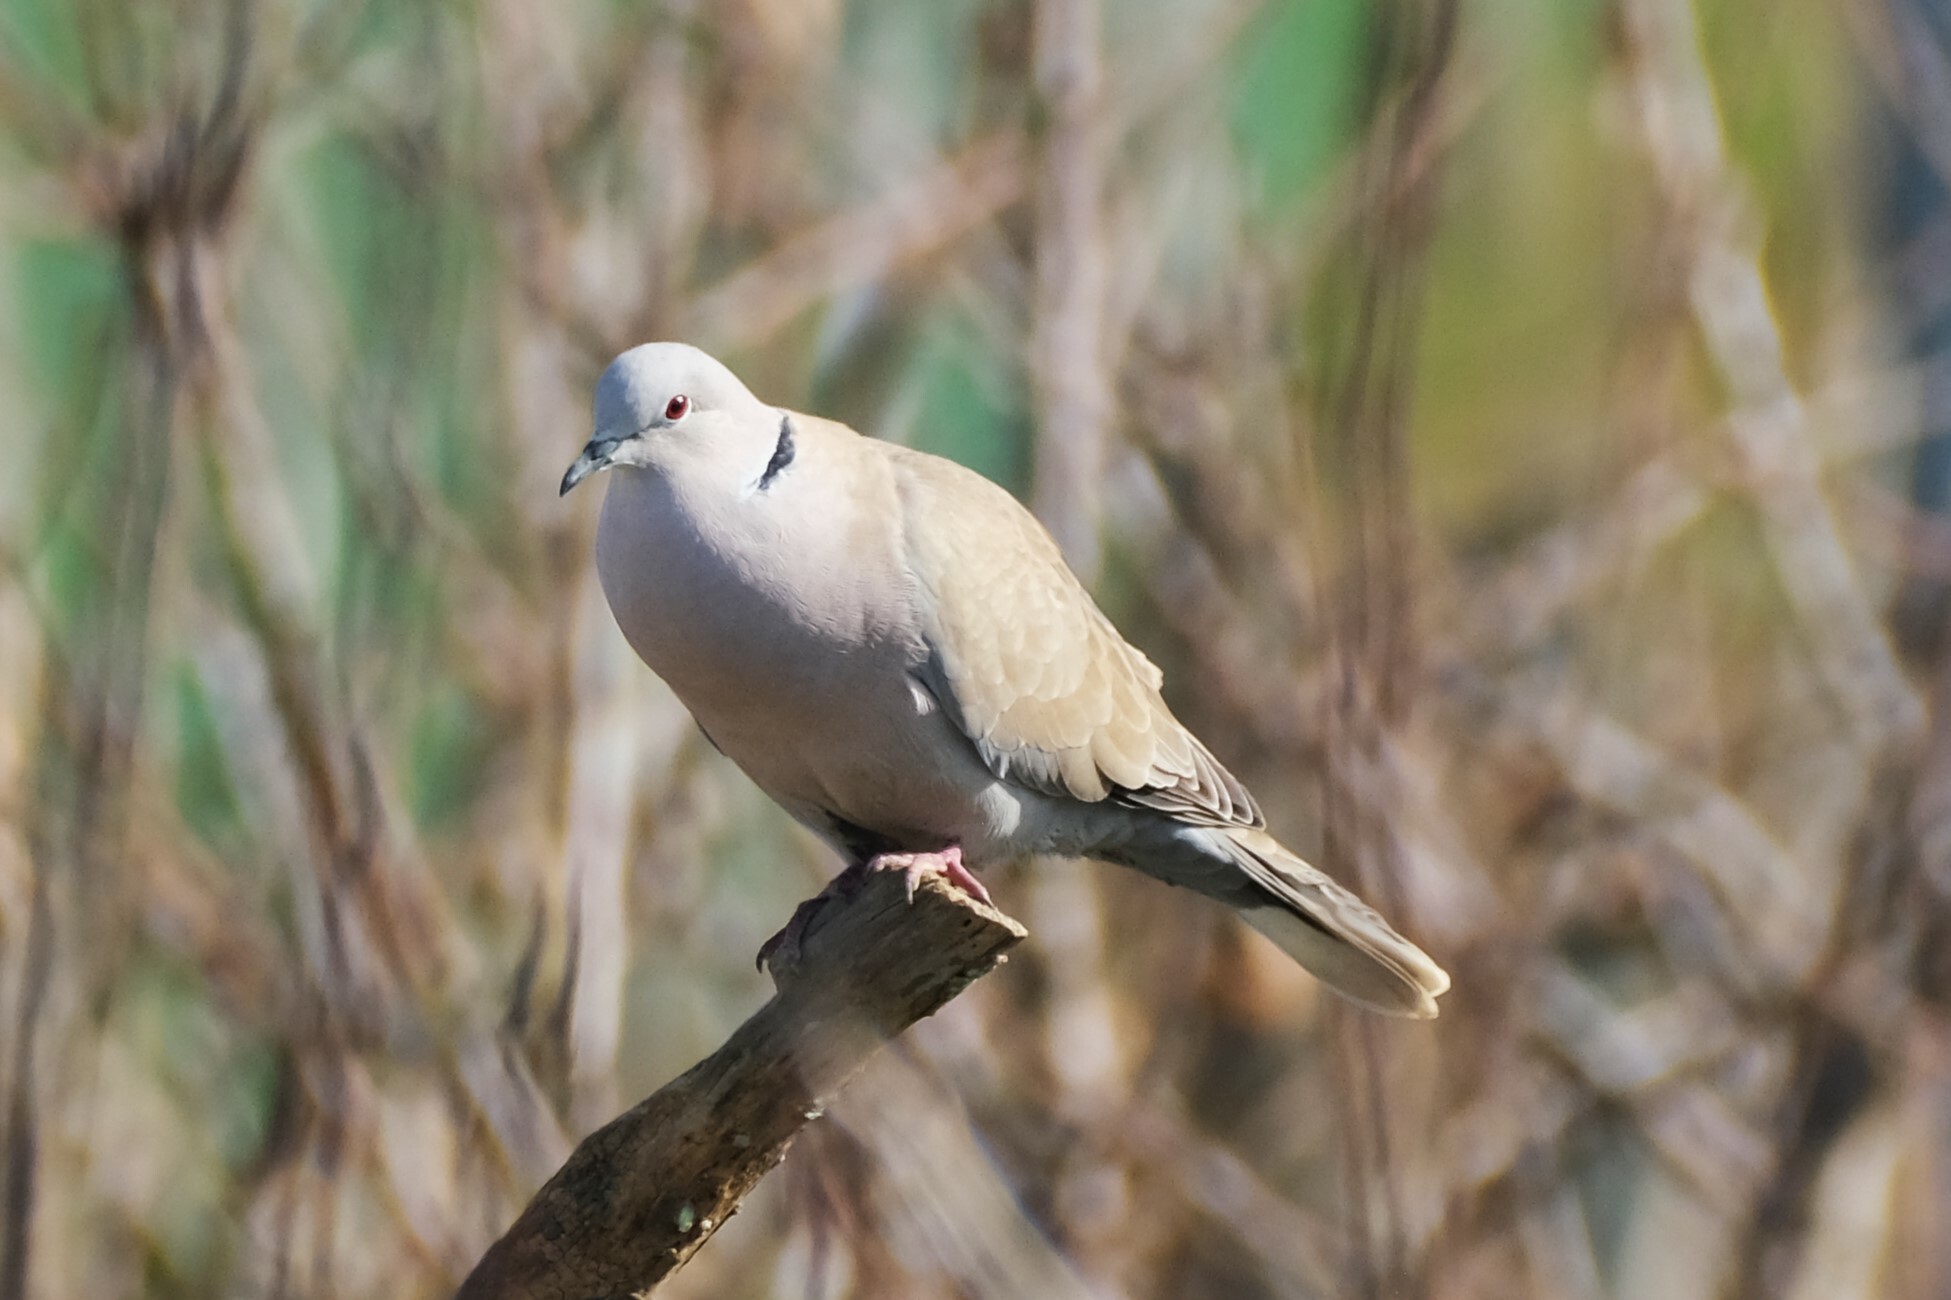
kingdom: Animalia
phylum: Chordata
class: Aves
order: Columbiformes
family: Columbidae
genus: Streptopelia
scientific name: Streptopelia decaocto
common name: Eurasian collared dove
